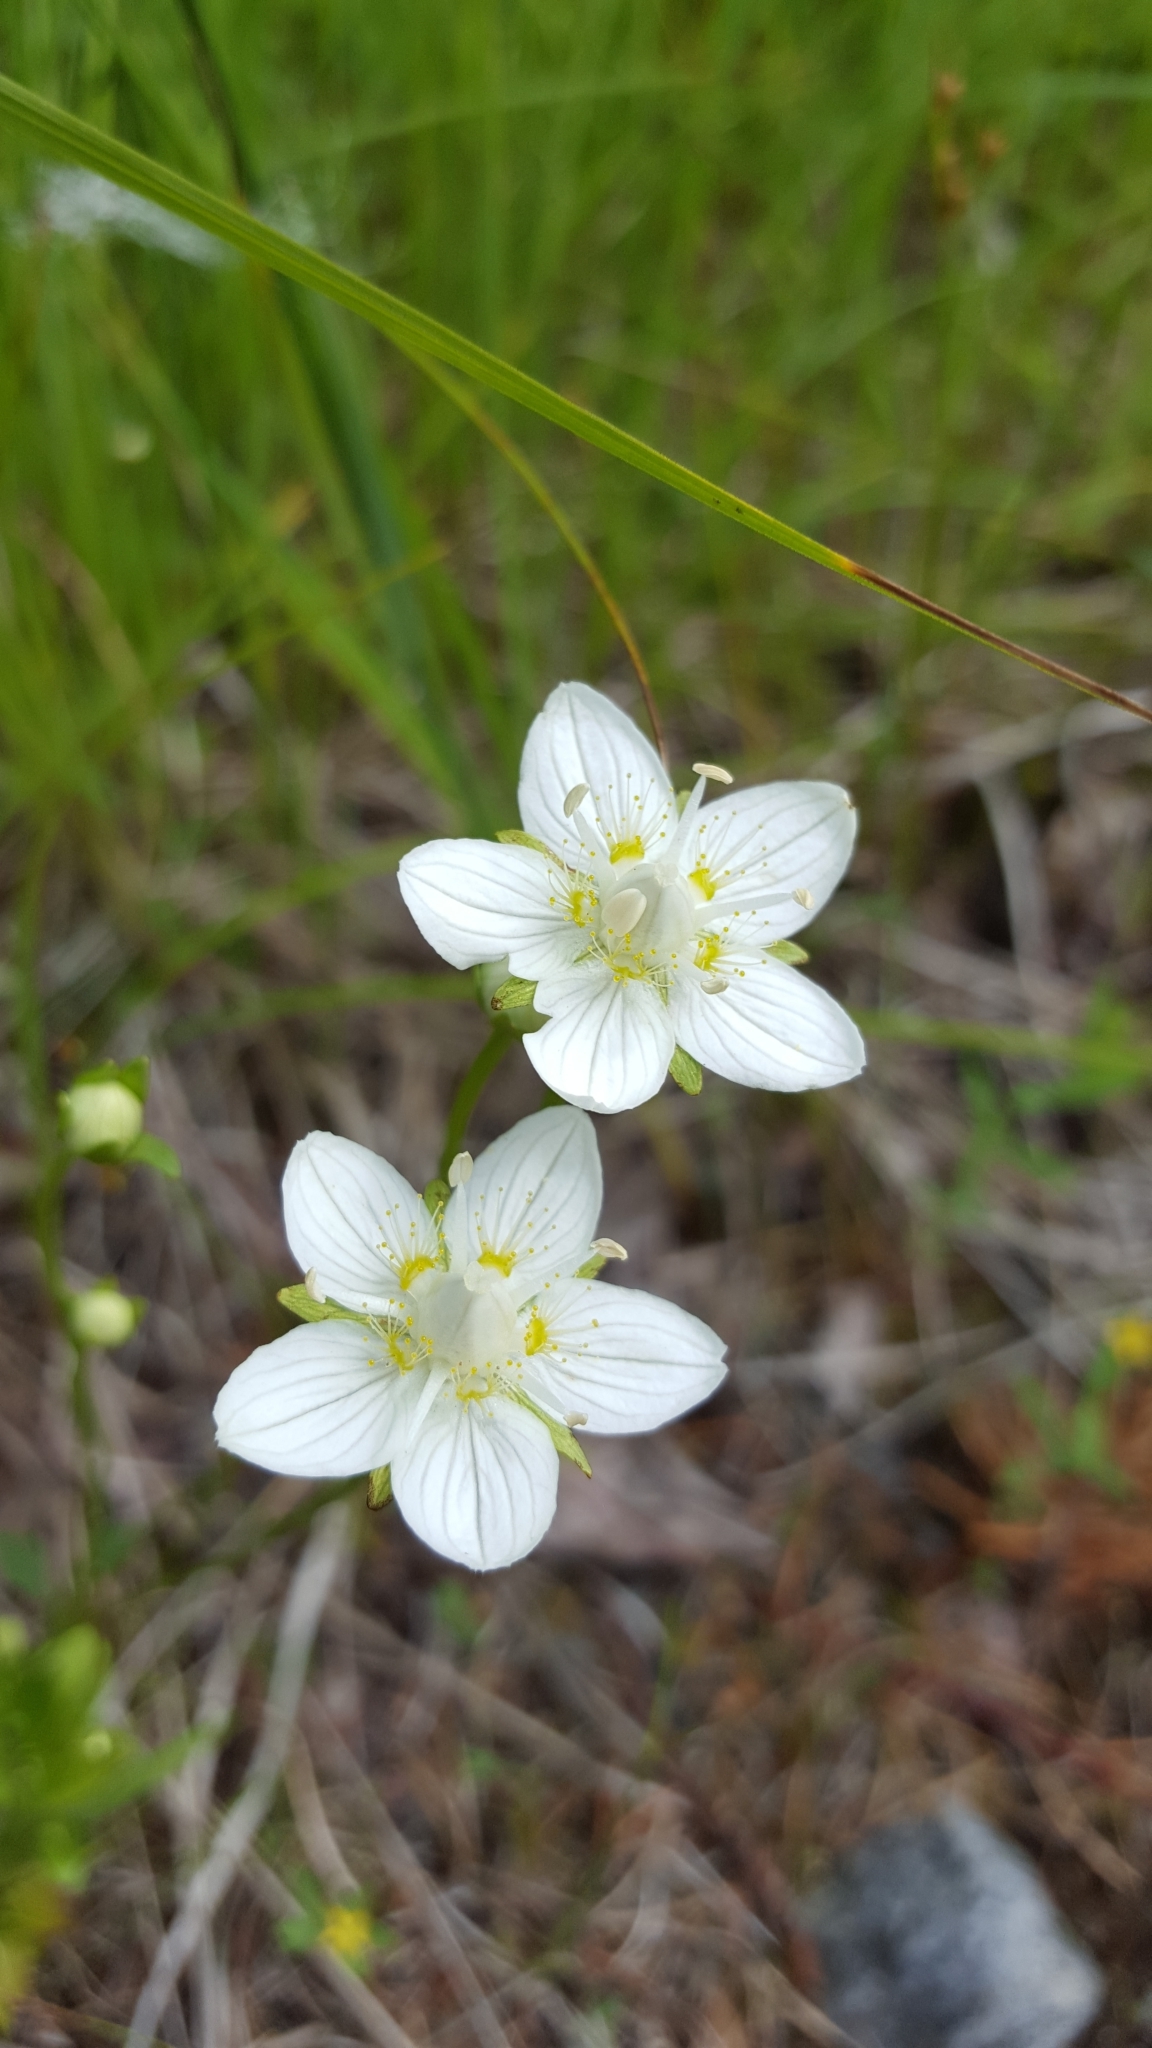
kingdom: Plantae
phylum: Tracheophyta
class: Magnoliopsida
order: Celastrales
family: Parnassiaceae
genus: Parnassia
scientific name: Parnassia palustris
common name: Grass-of-parnassus
